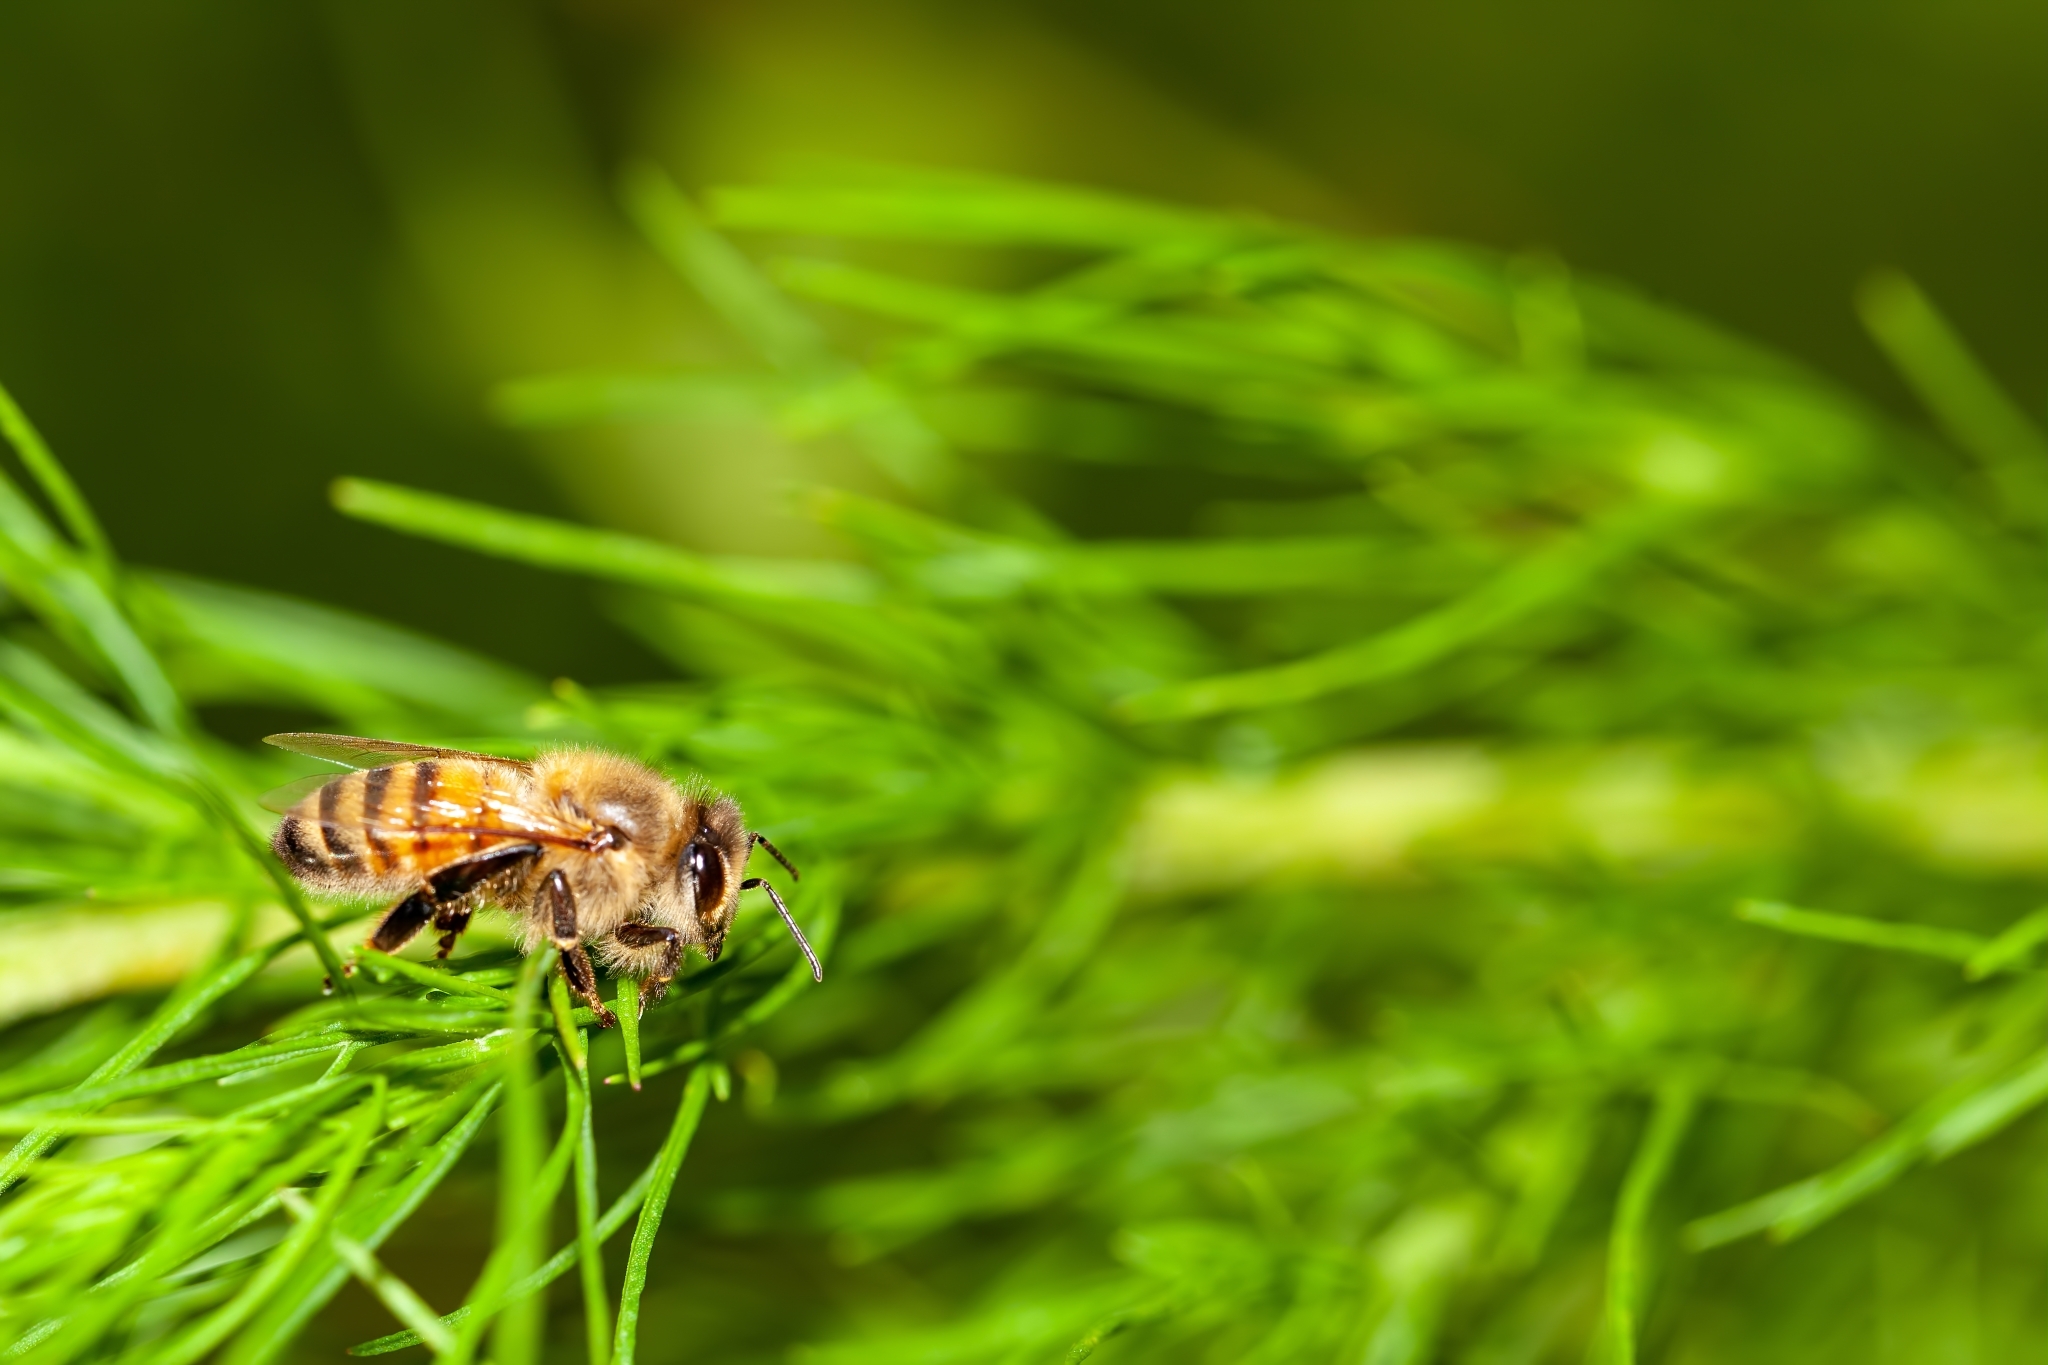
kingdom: Animalia
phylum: Arthropoda
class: Insecta
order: Hymenoptera
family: Apidae
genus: Apis
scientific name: Apis mellifera
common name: Honey bee
